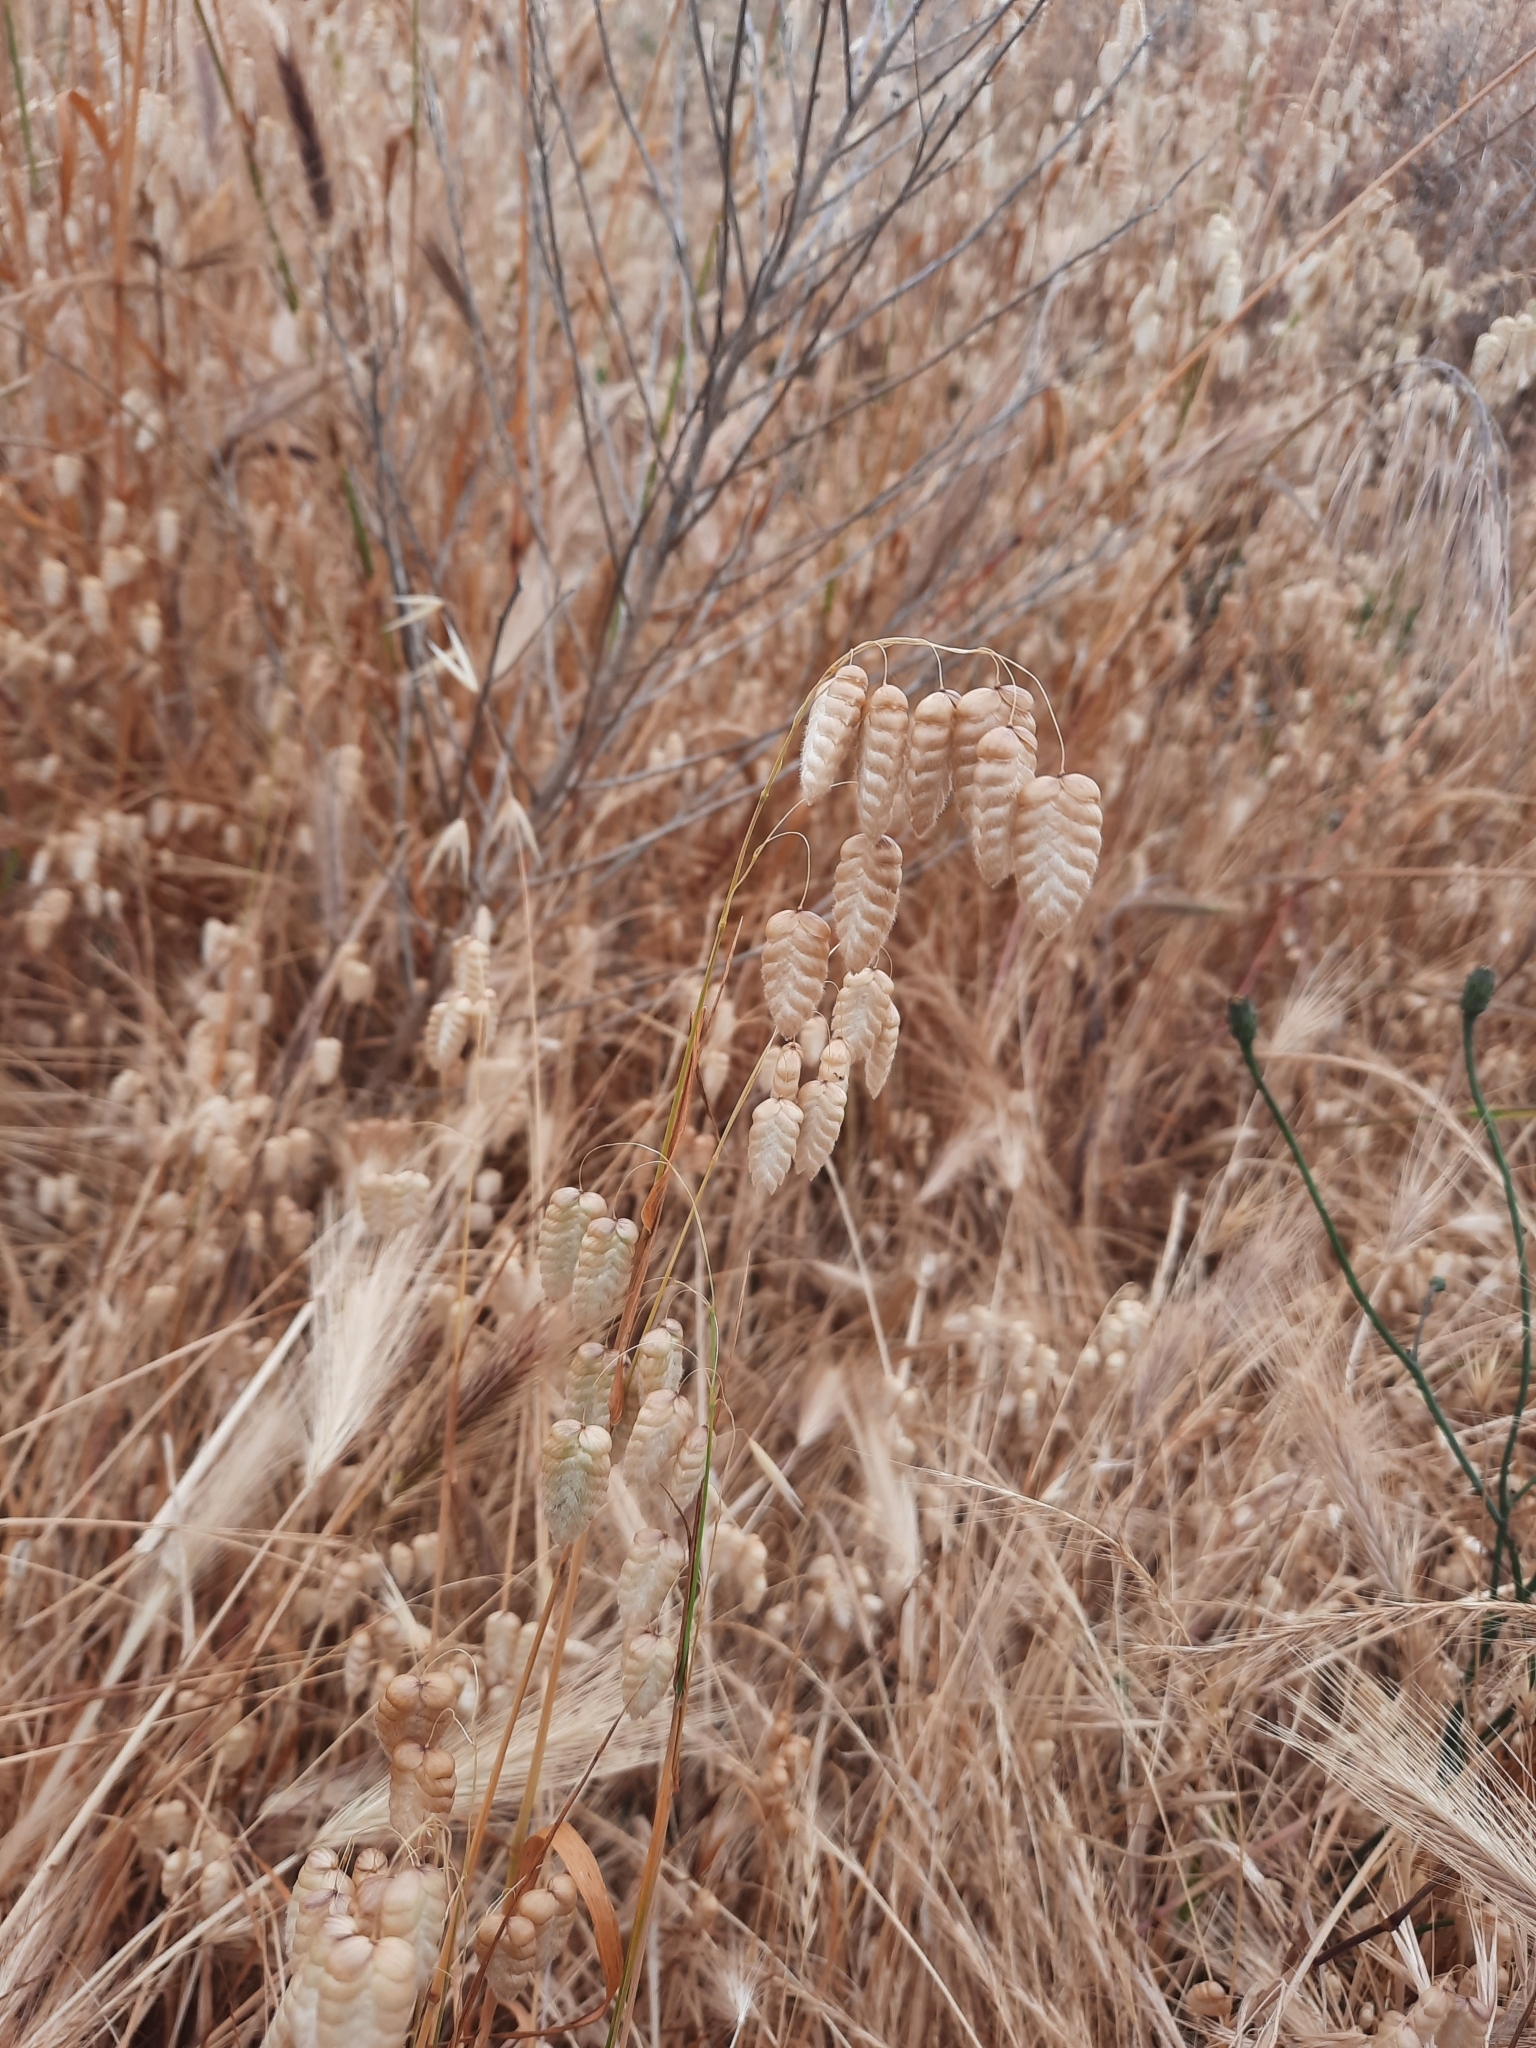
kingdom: Plantae
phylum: Tracheophyta
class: Liliopsida
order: Poales
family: Poaceae
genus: Briza
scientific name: Briza maxima
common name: Big quakinggrass
